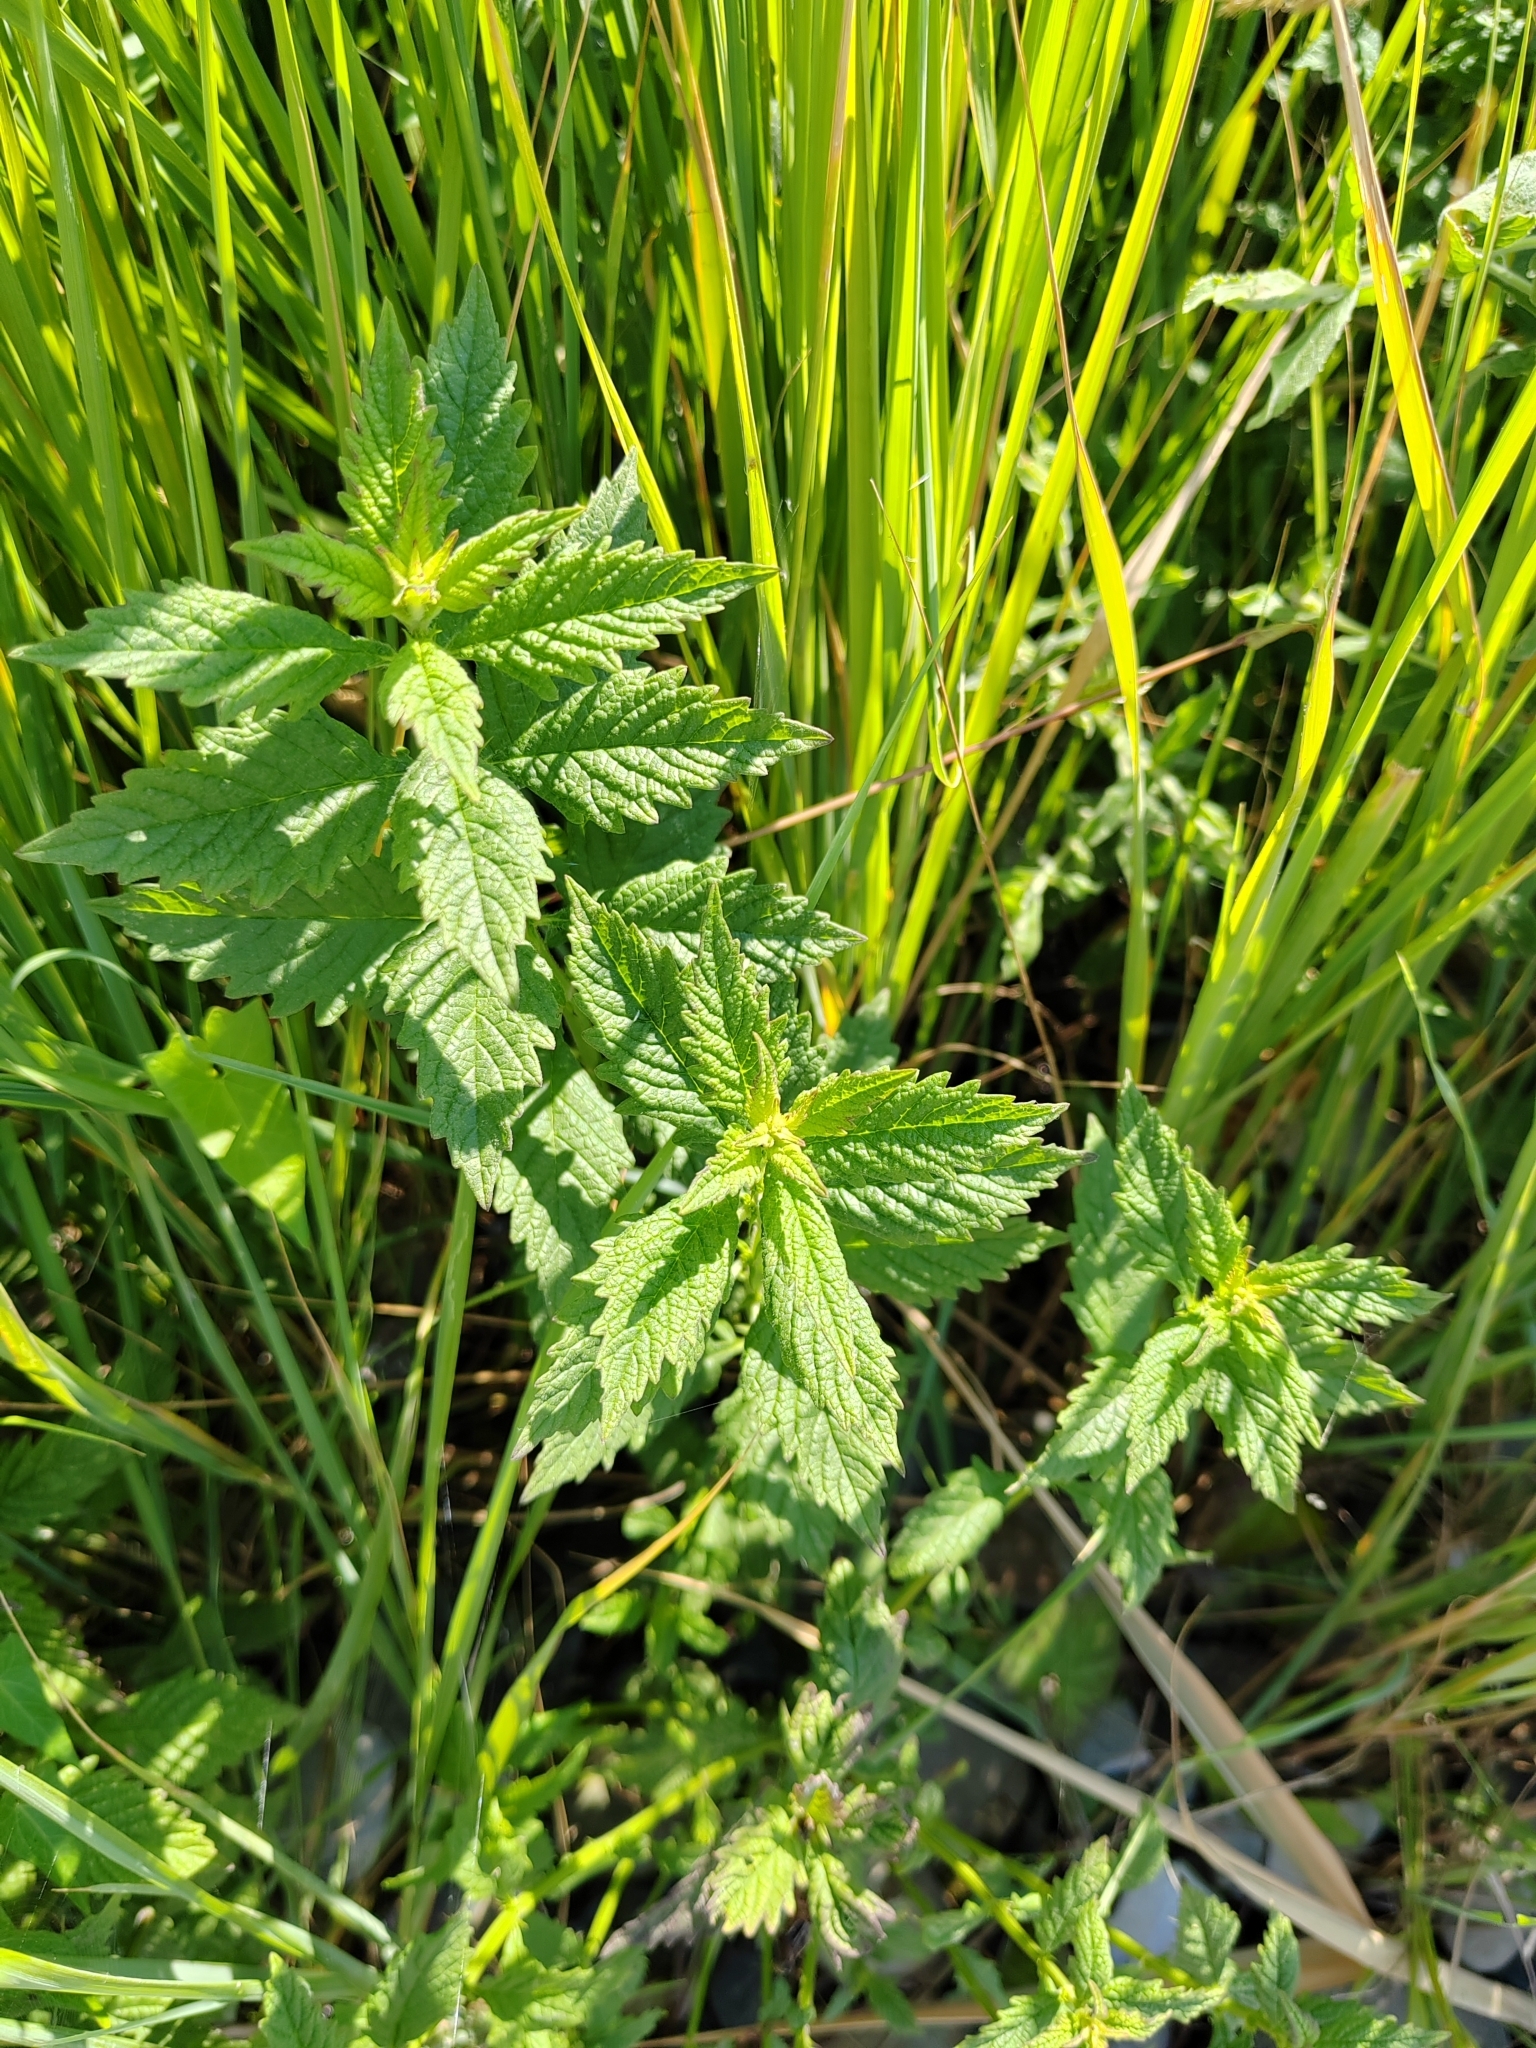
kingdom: Plantae
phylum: Tracheophyta
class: Magnoliopsida
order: Lamiales
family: Lamiaceae
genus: Lycopus
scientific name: Lycopus europaeus
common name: European bugleweed
